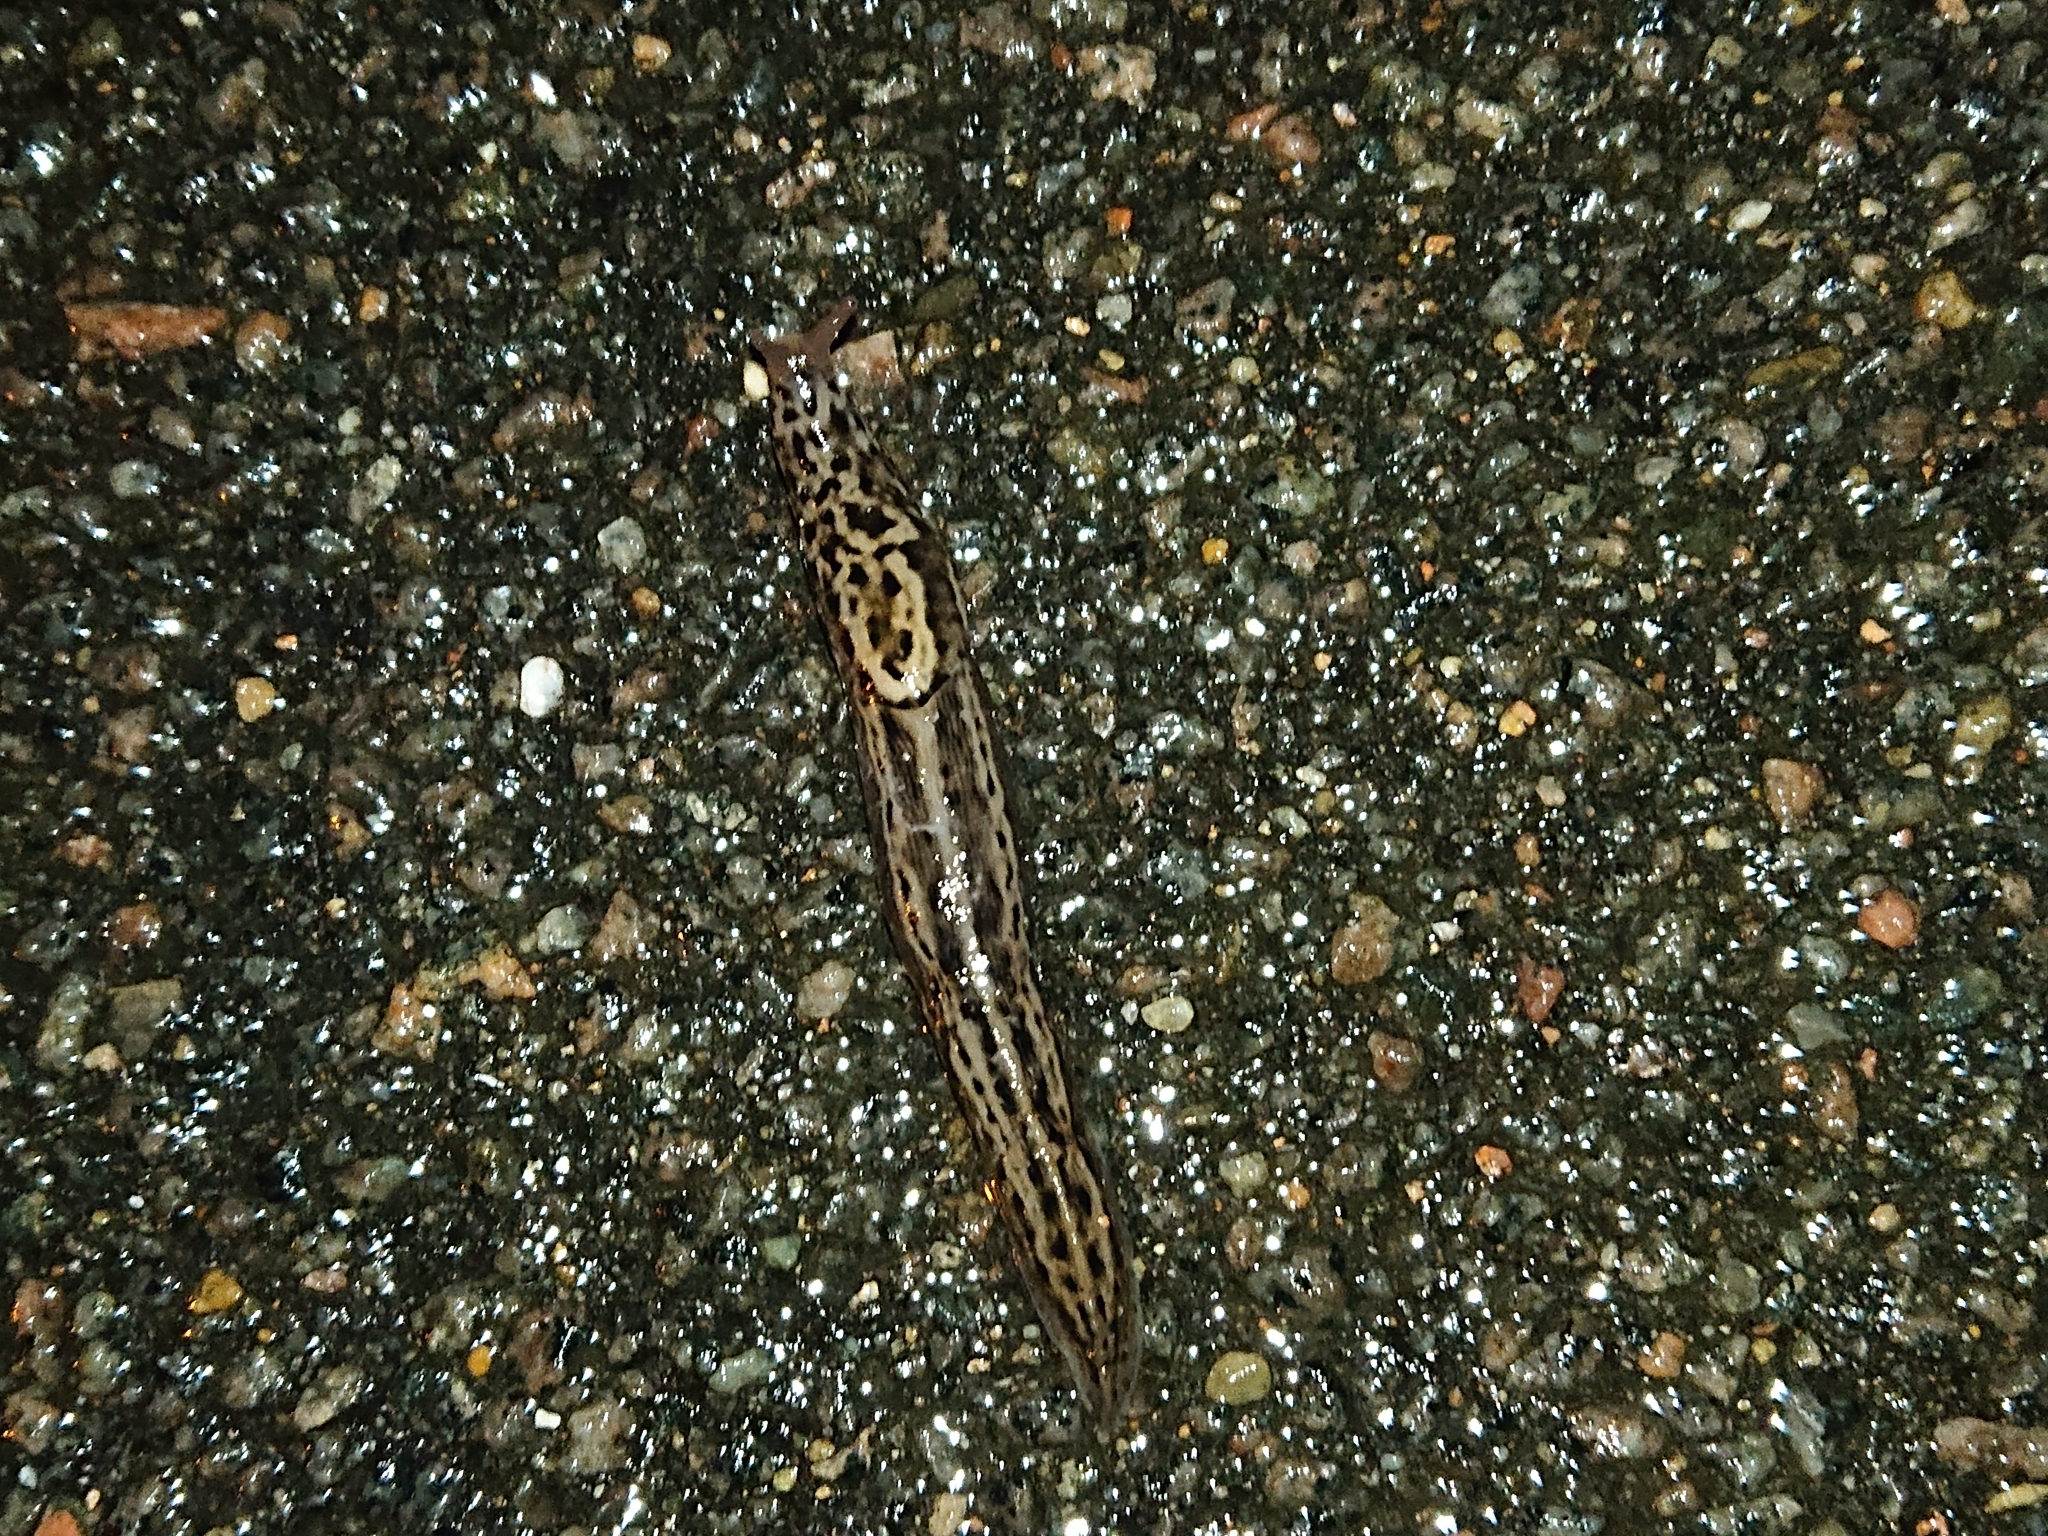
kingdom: Animalia
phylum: Mollusca
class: Gastropoda
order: Stylommatophora
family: Limacidae
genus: Limax
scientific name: Limax maximus
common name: Great grey slug
